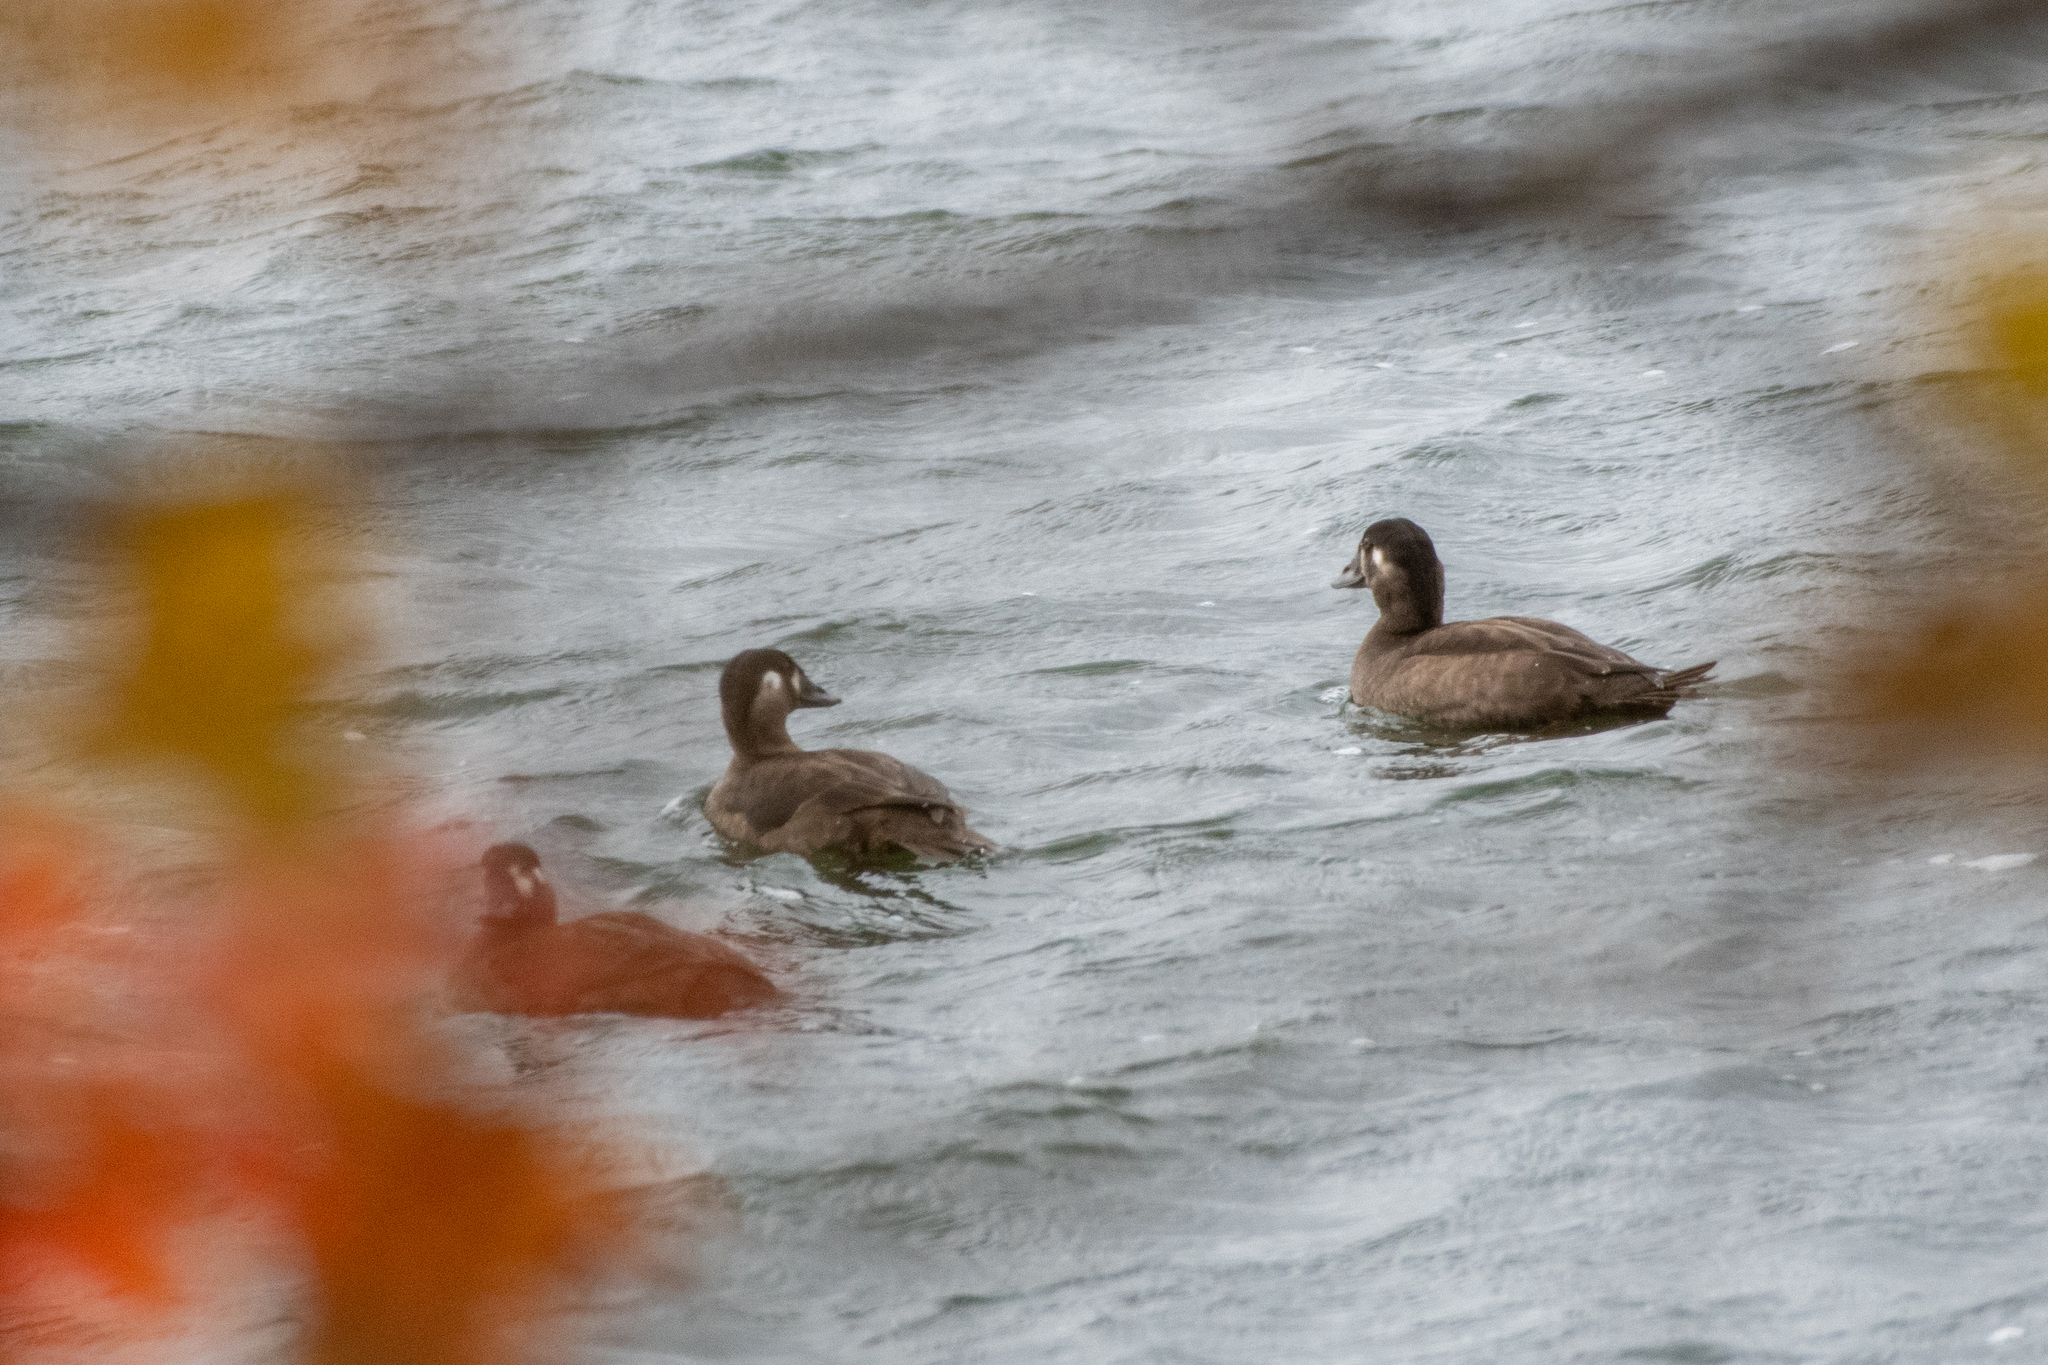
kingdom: Animalia
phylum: Chordata
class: Aves
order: Anseriformes
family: Anatidae
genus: Melanitta
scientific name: Melanitta perspicillata
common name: Surf scoter
